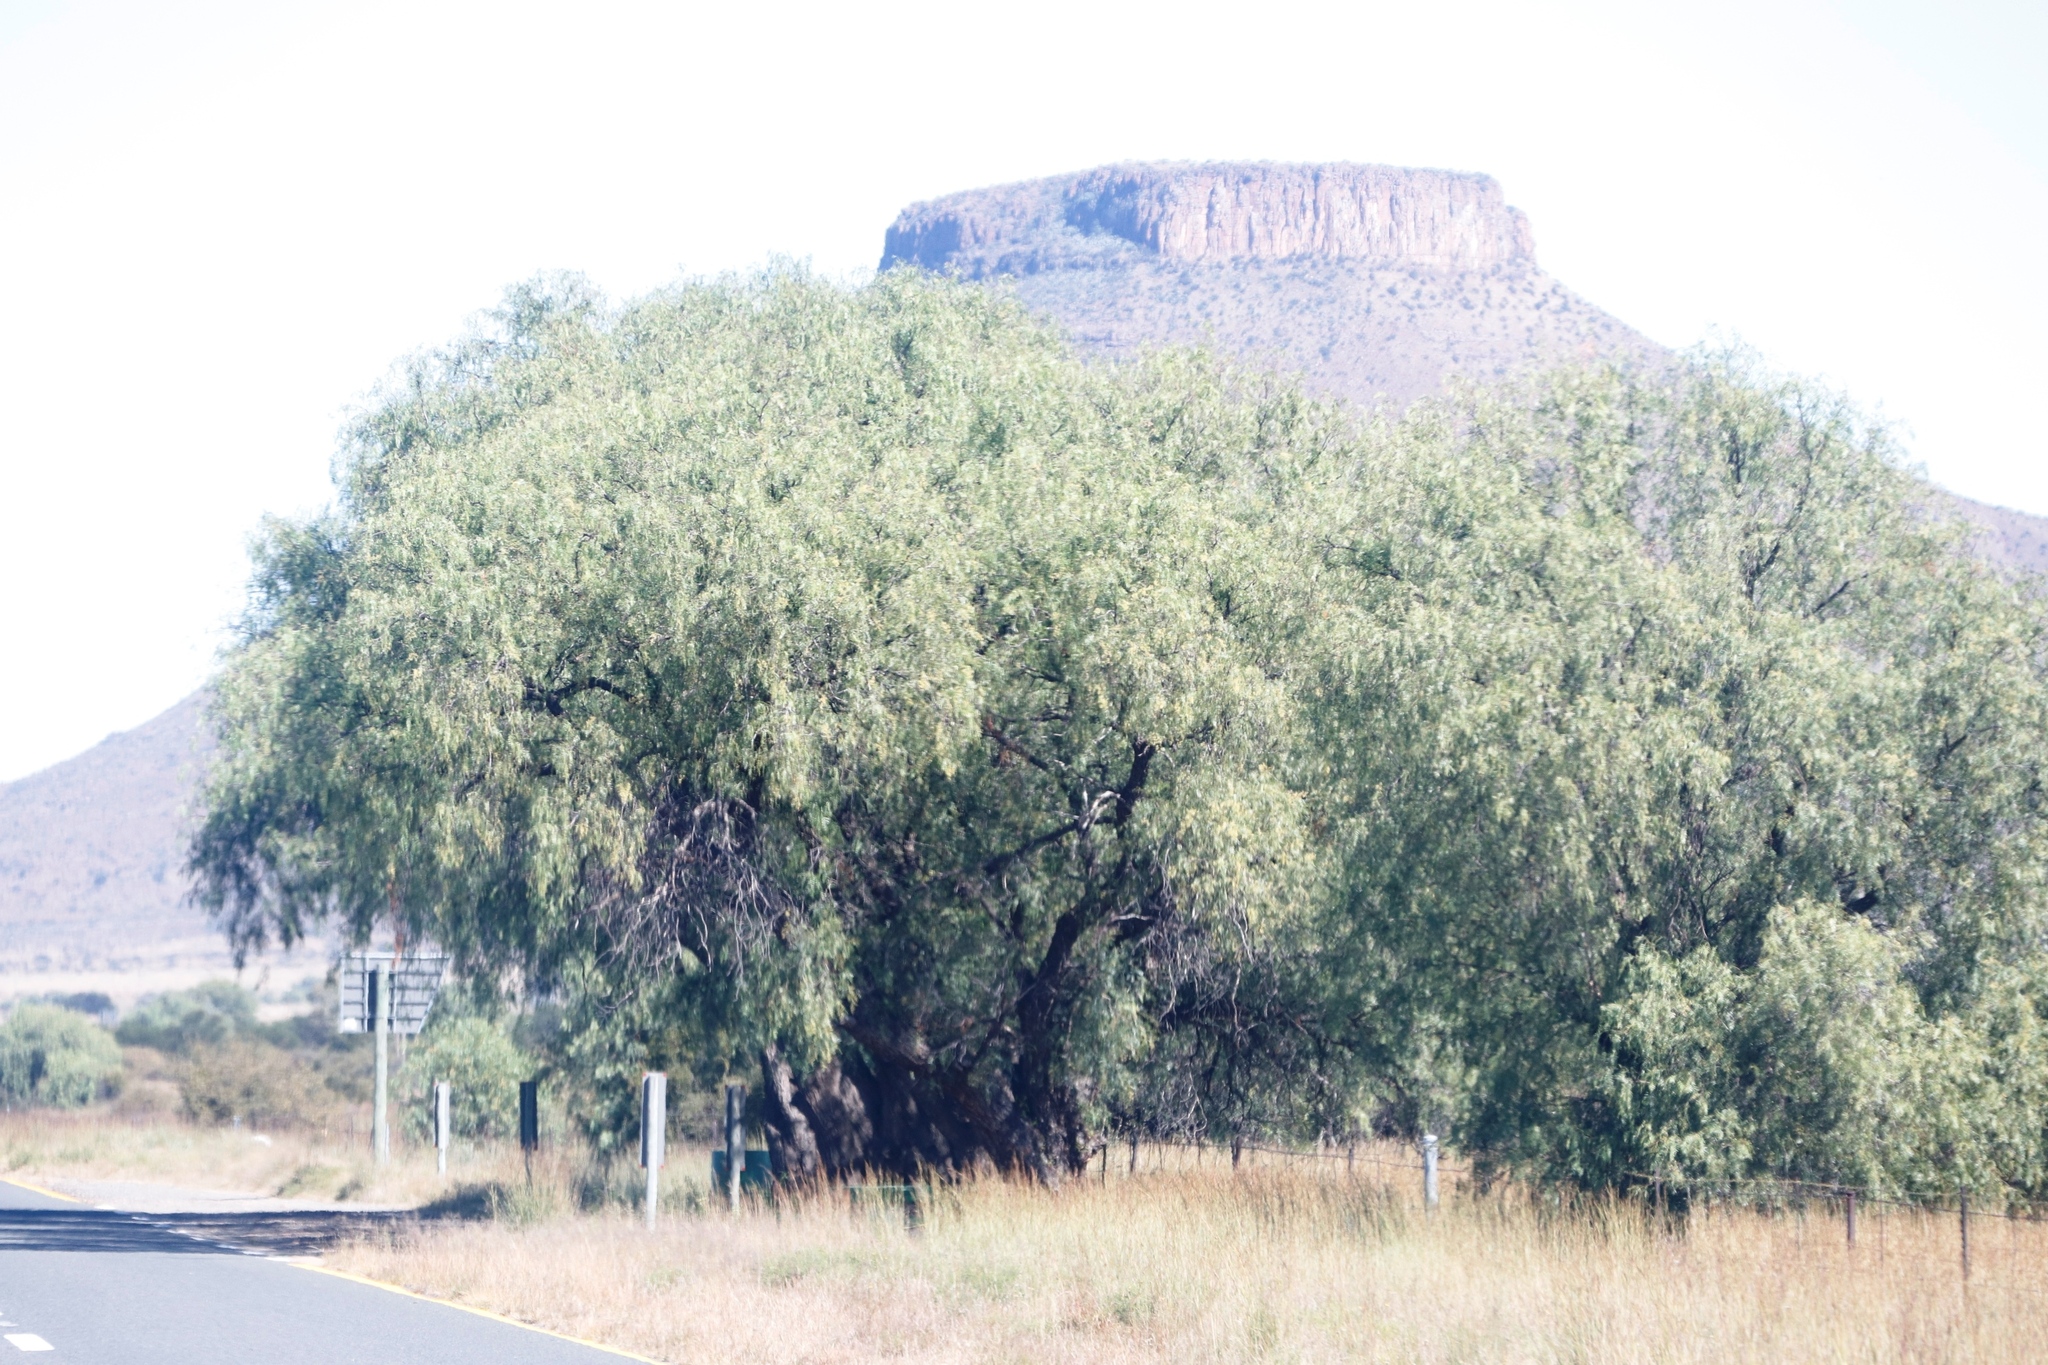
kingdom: Plantae
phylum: Tracheophyta
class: Magnoliopsida
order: Sapindales
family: Anacardiaceae
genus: Schinus
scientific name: Schinus molle
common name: Peruvian peppertree
